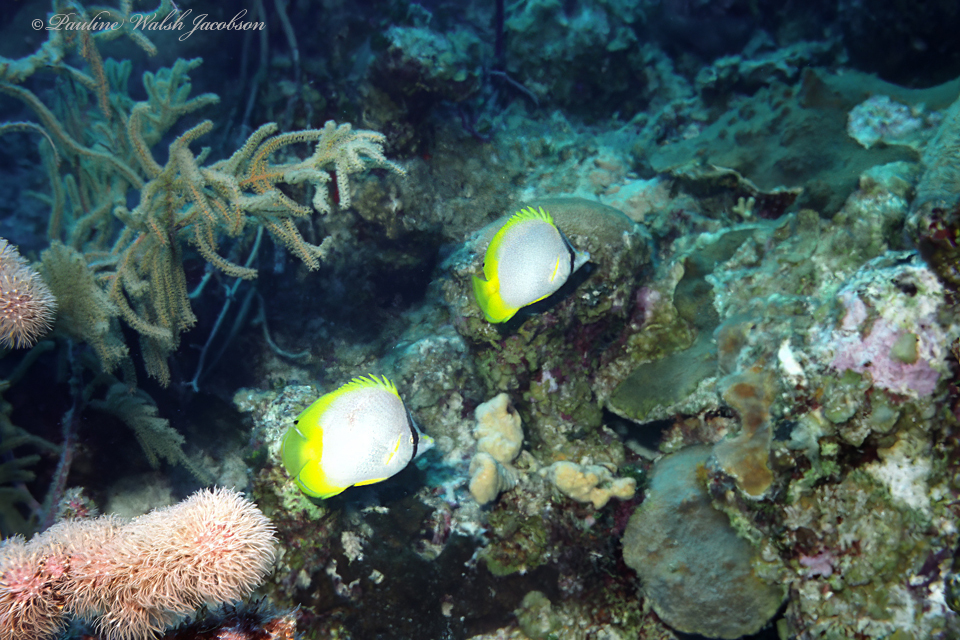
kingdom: Animalia
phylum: Chordata
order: Perciformes
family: Chaetodontidae
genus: Chaetodon
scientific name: Chaetodon ocellatus
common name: Spotfin butterflyfish
